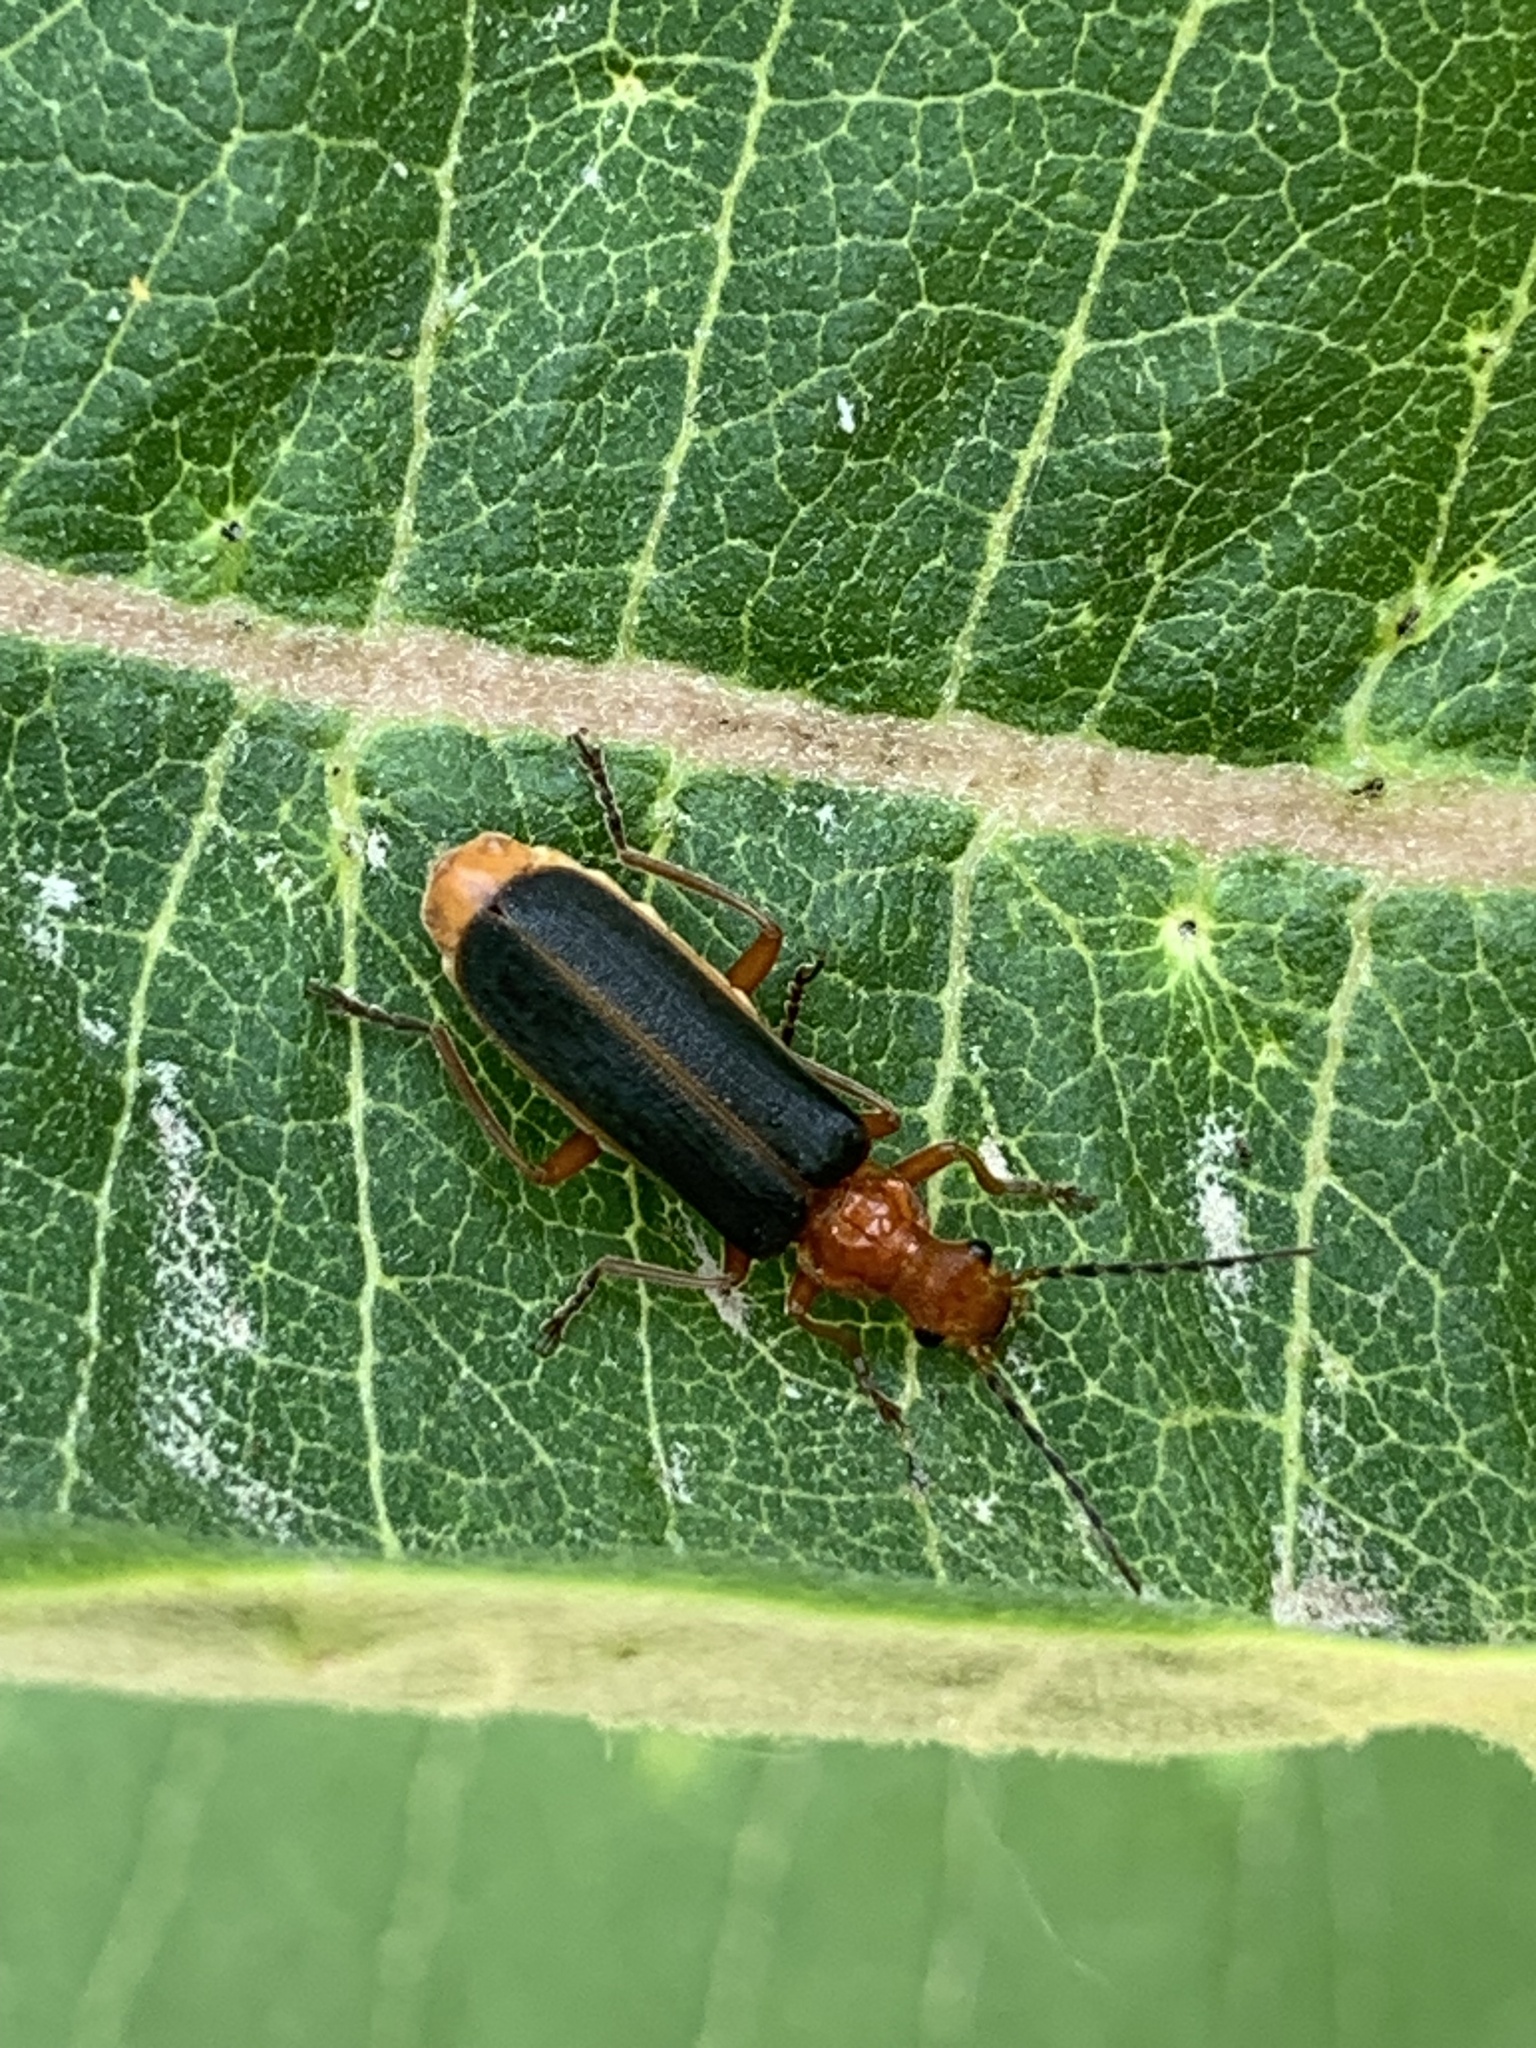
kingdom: Animalia
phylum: Arthropoda
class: Insecta
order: Coleoptera
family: Cantharidae
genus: Podabrus
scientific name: Podabrus tomentosus
